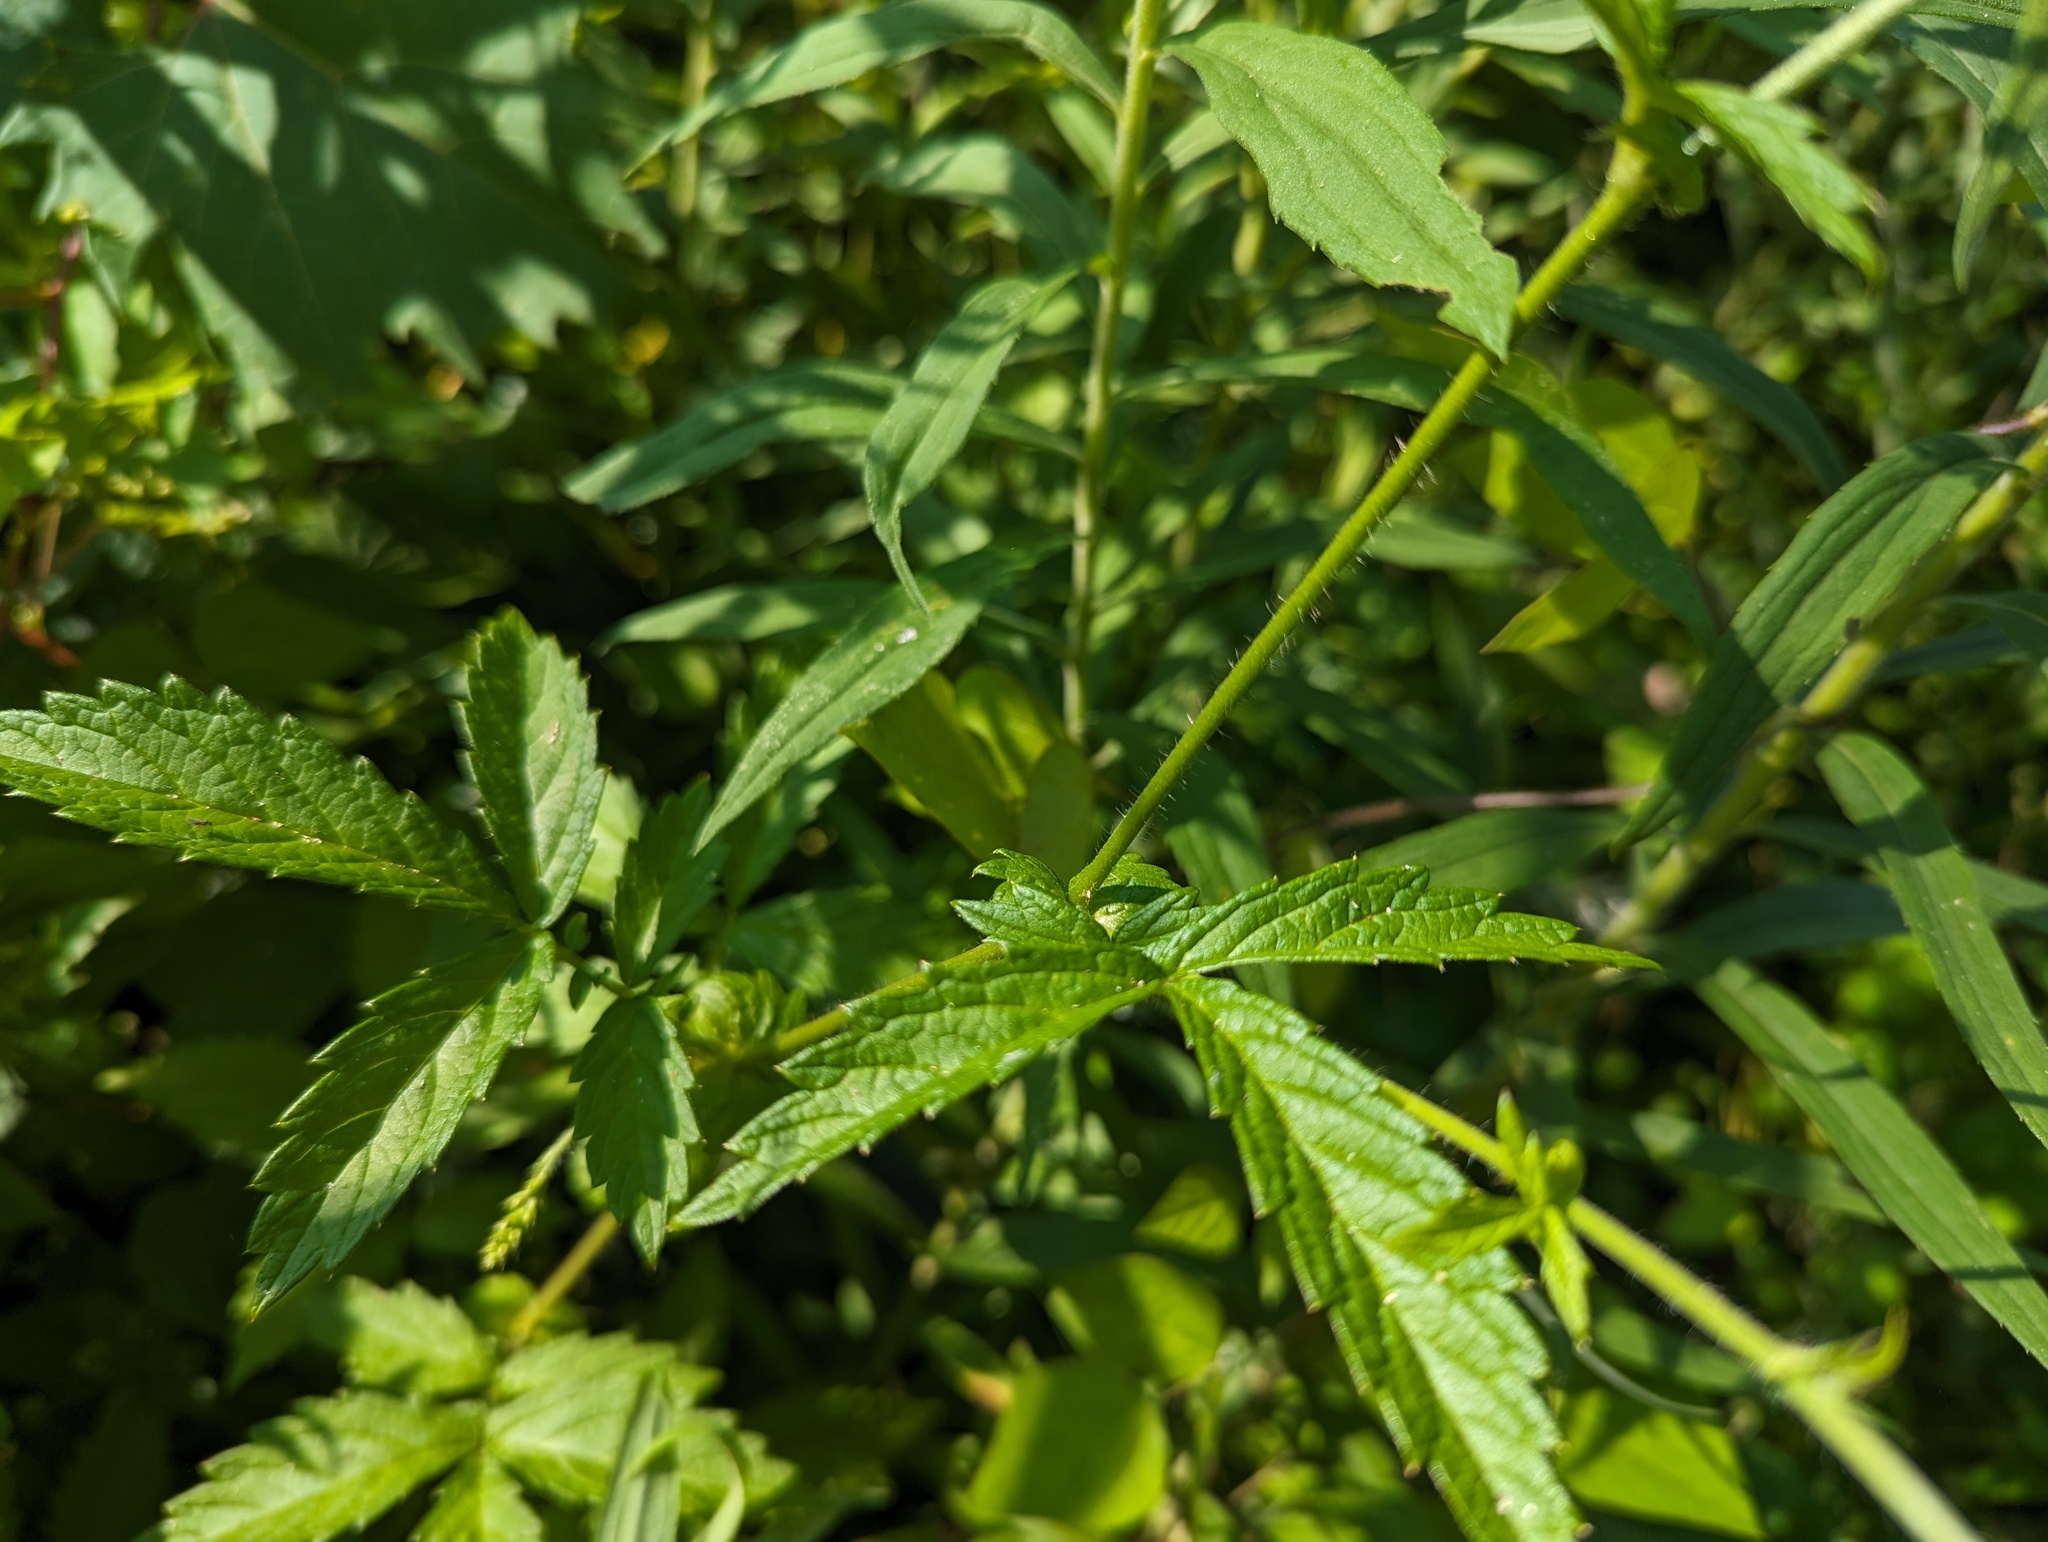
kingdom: Plantae
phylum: Tracheophyta
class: Magnoliopsida
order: Rosales
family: Rosaceae
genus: Agrimonia
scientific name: Agrimonia gryposepala
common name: Common agrimony
